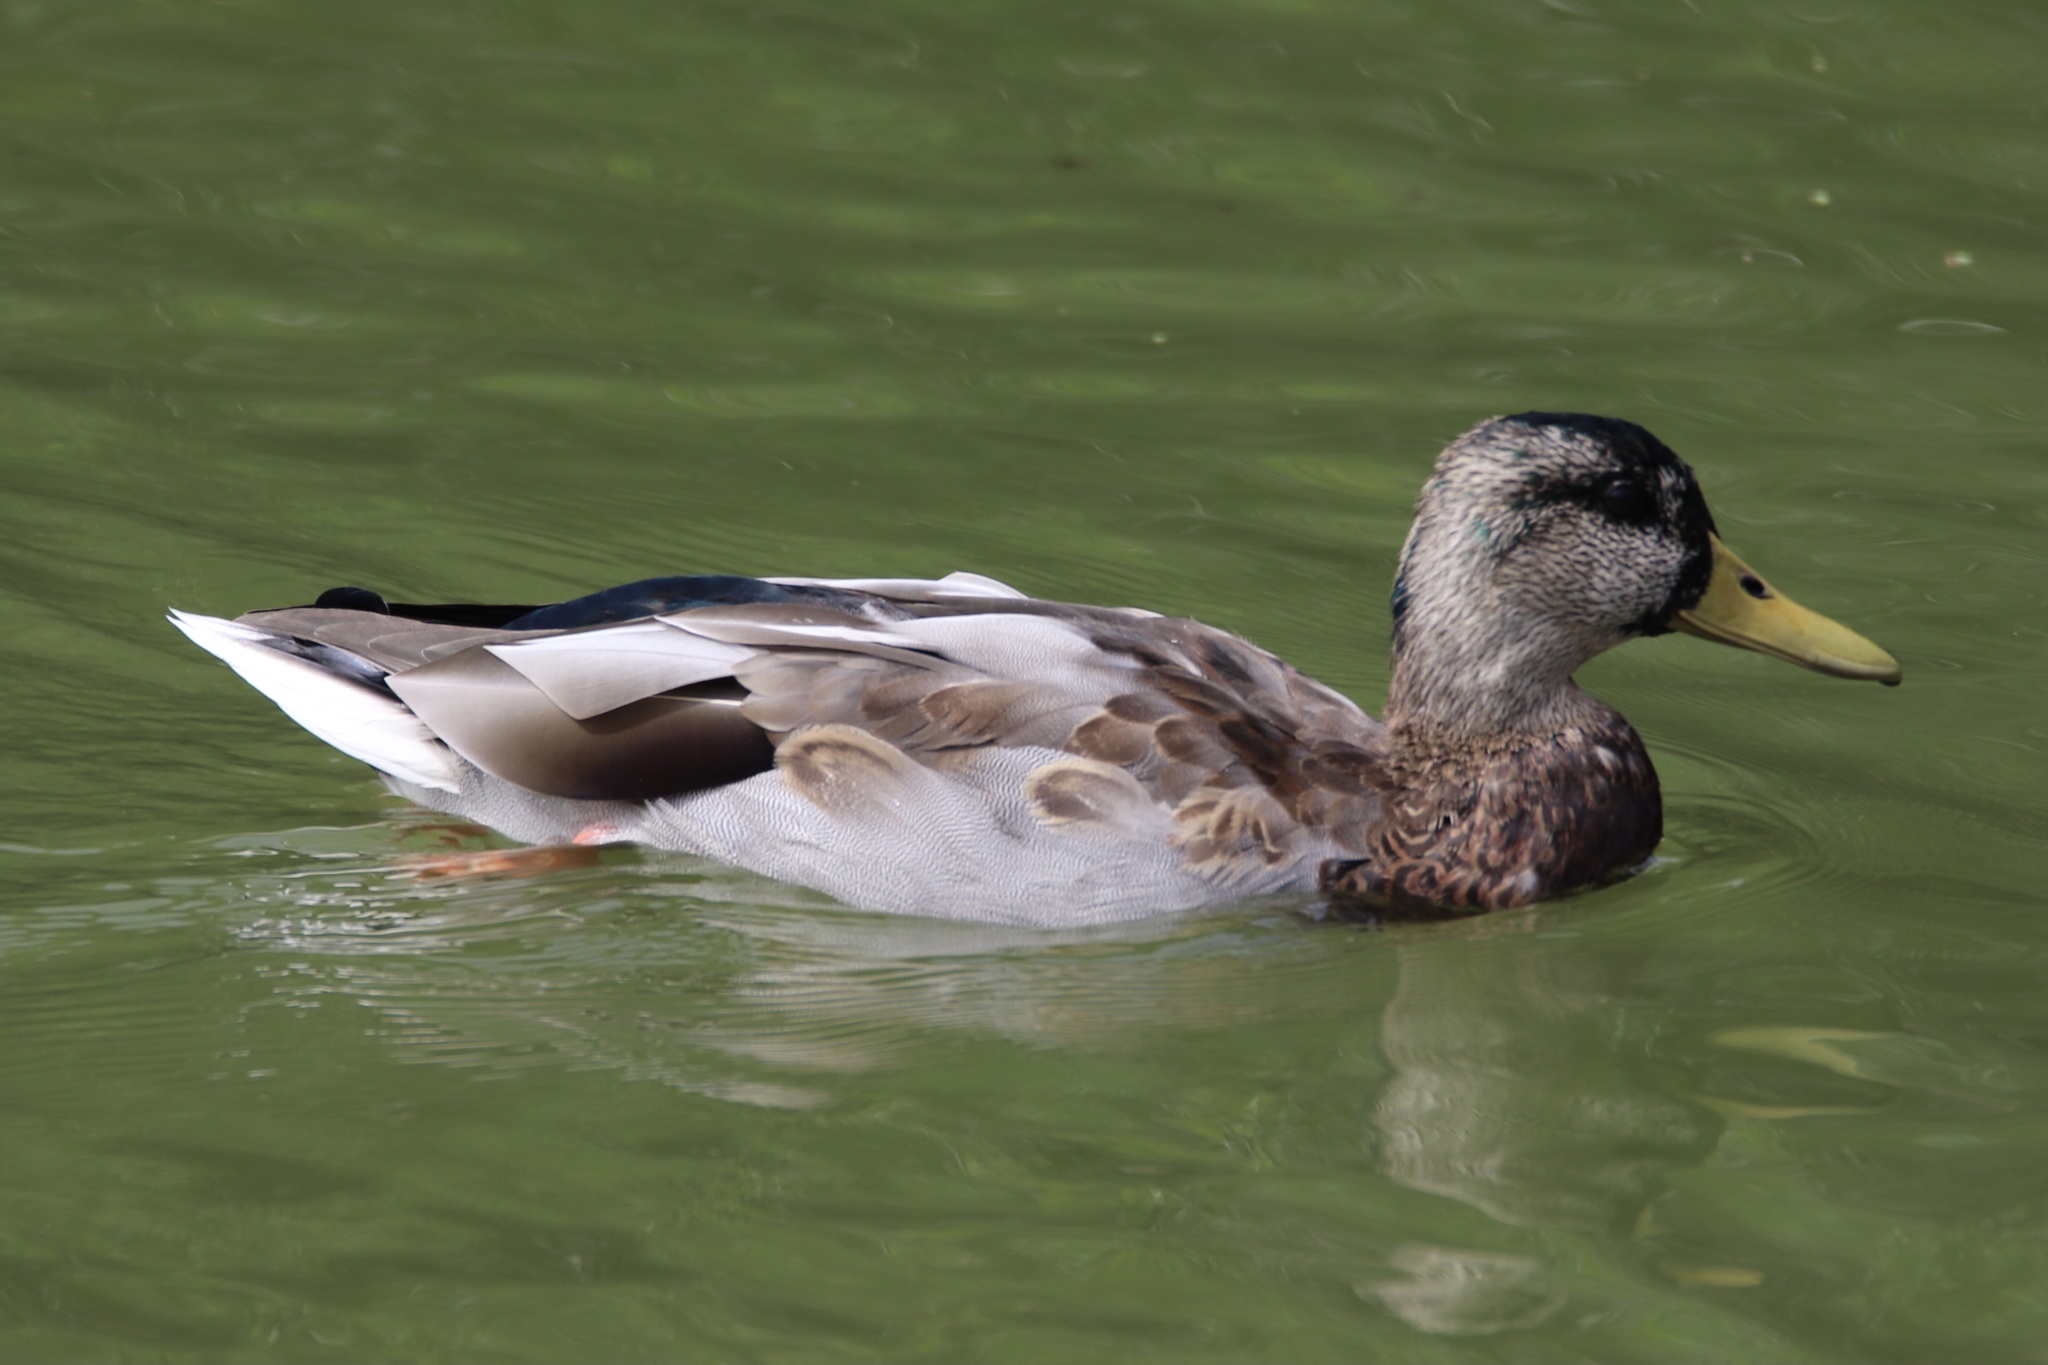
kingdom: Animalia
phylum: Chordata
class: Aves
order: Anseriformes
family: Anatidae
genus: Anas
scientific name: Anas platyrhynchos
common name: Mallard
